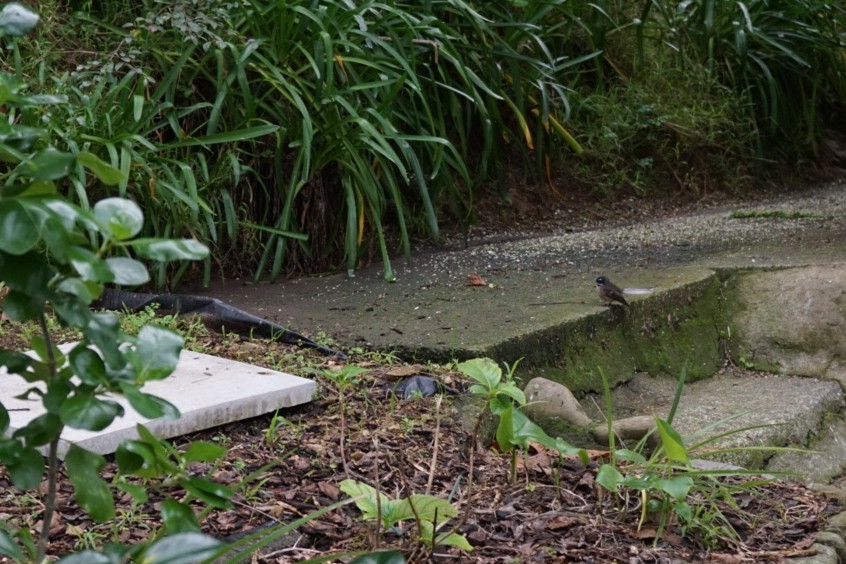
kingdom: Animalia
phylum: Chordata
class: Aves
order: Passeriformes
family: Rhipiduridae
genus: Rhipidura
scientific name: Rhipidura fuliginosa
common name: New zealand fantail
